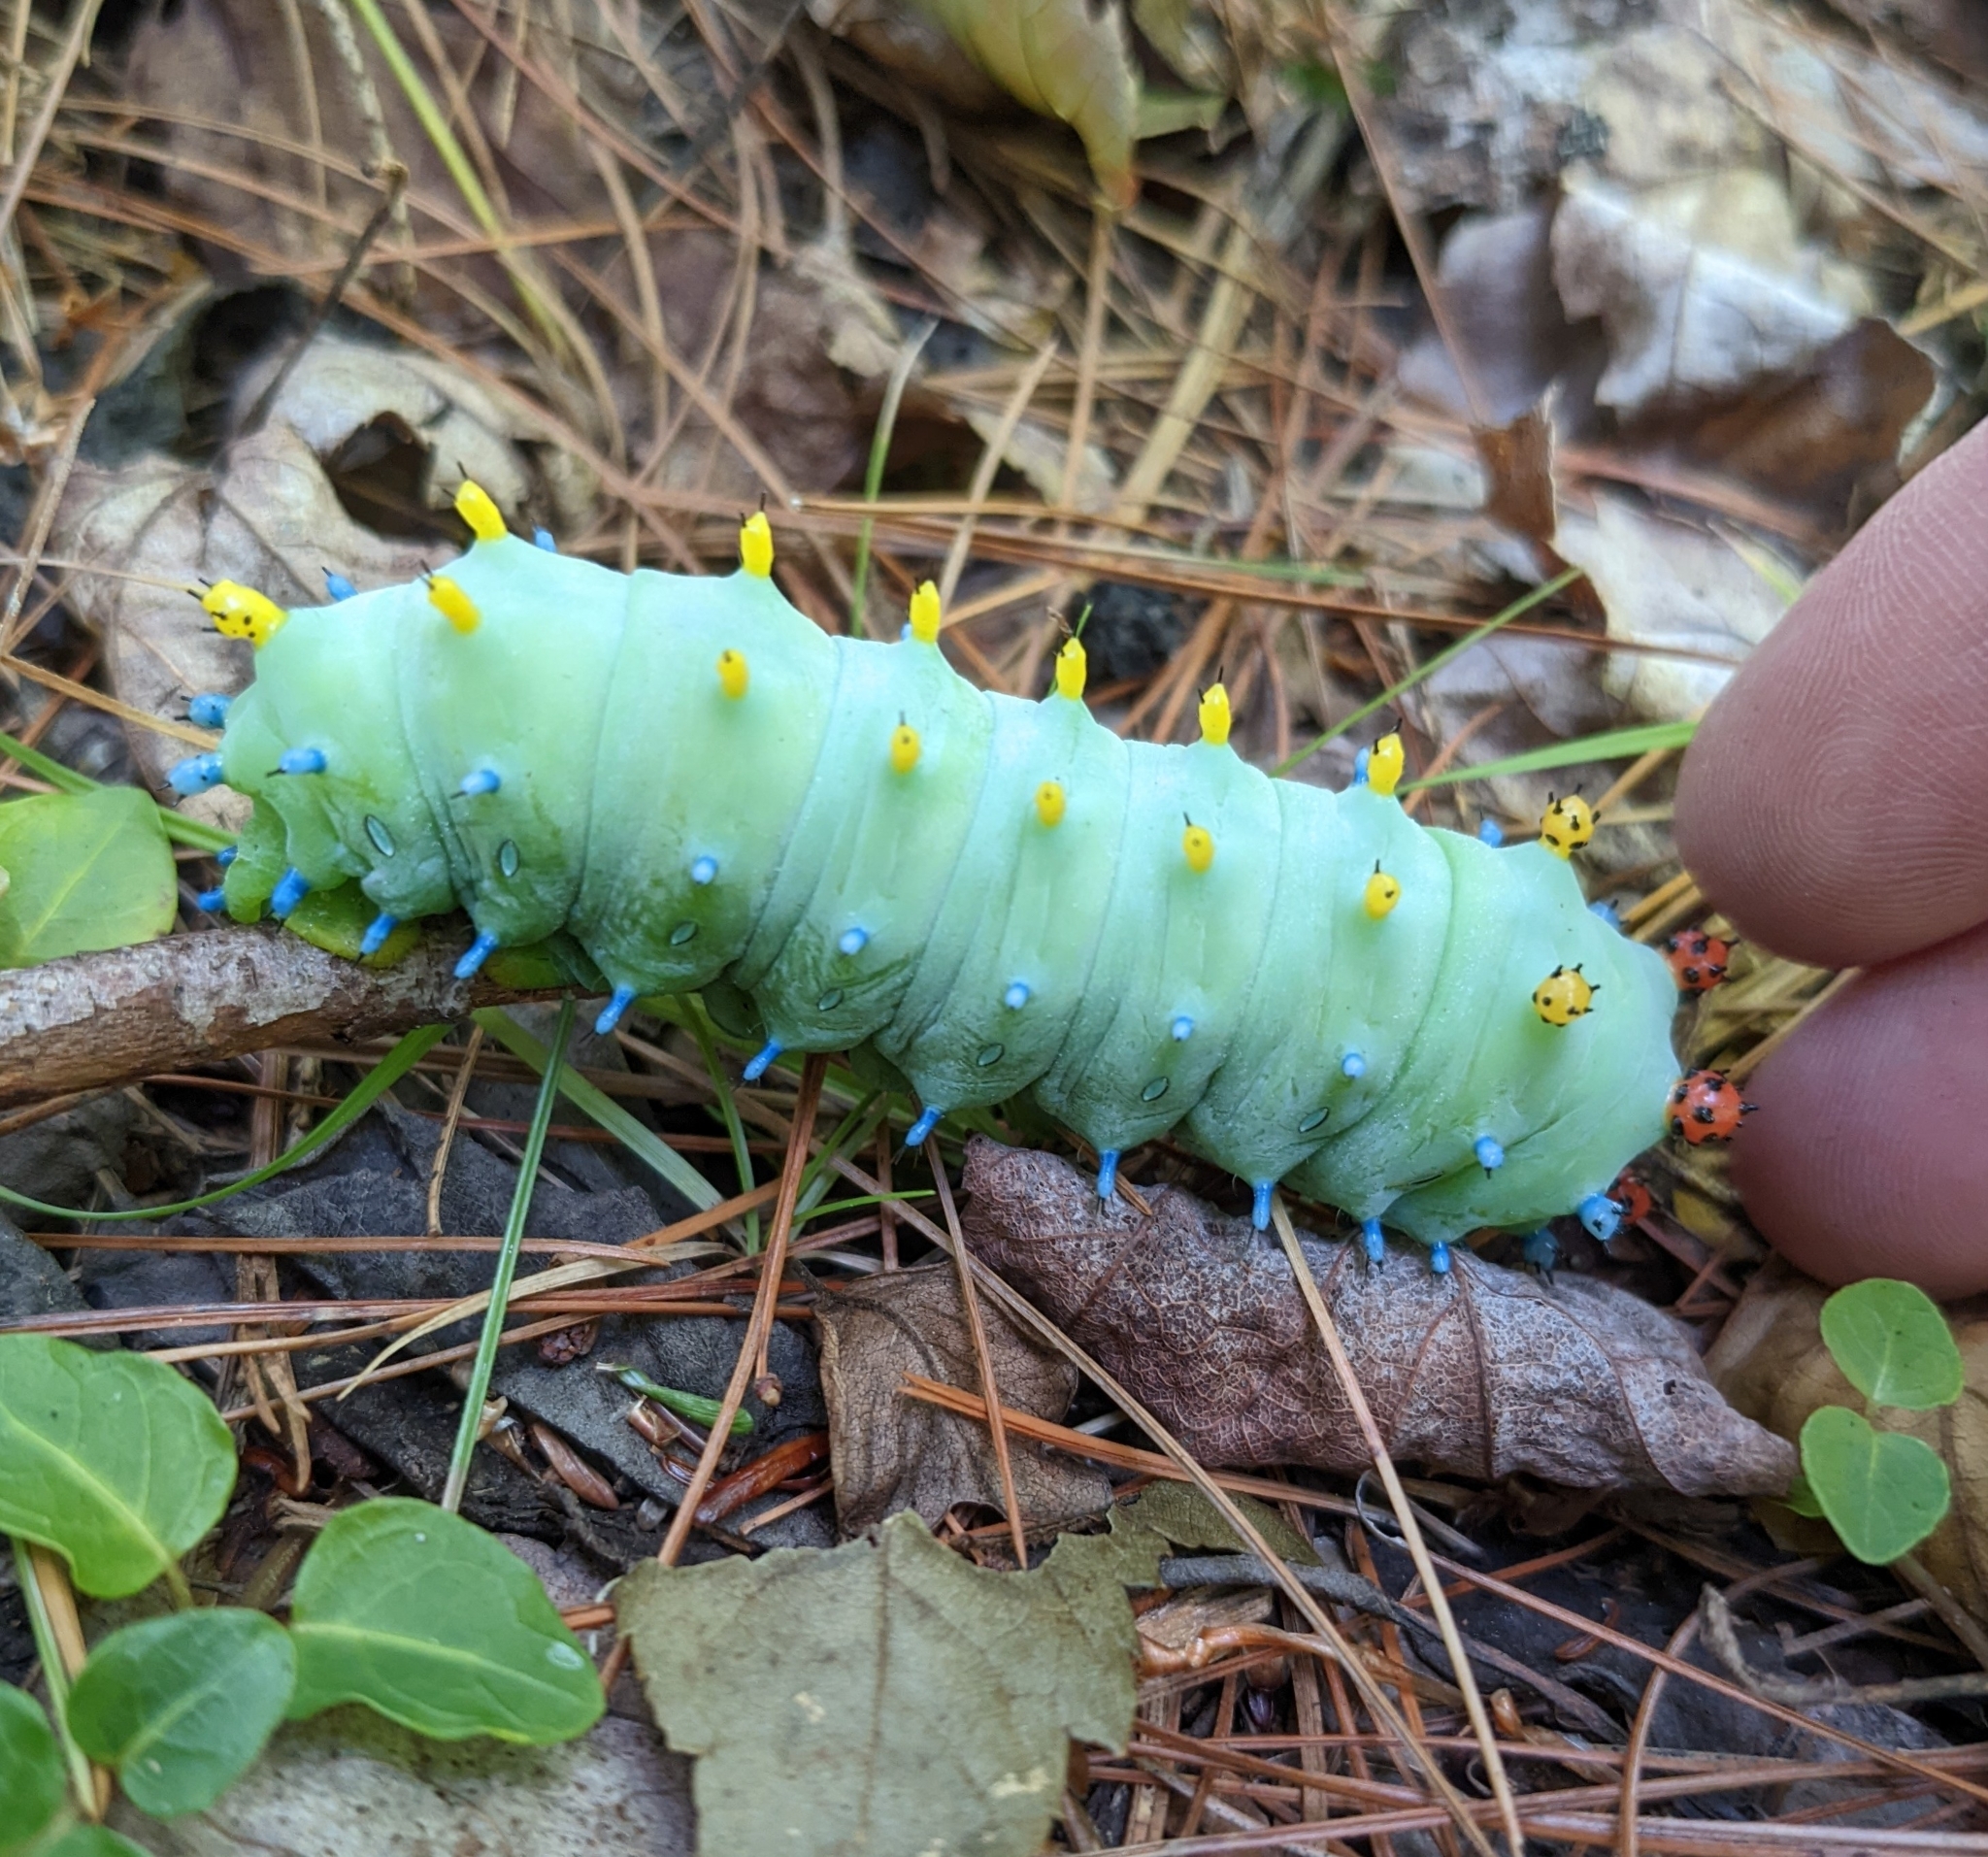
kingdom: Animalia
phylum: Arthropoda
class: Insecta
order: Lepidoptera
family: Saturniidae
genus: Hyalophora
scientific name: Hyalophora cecropia
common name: Cecropia silkmoth
